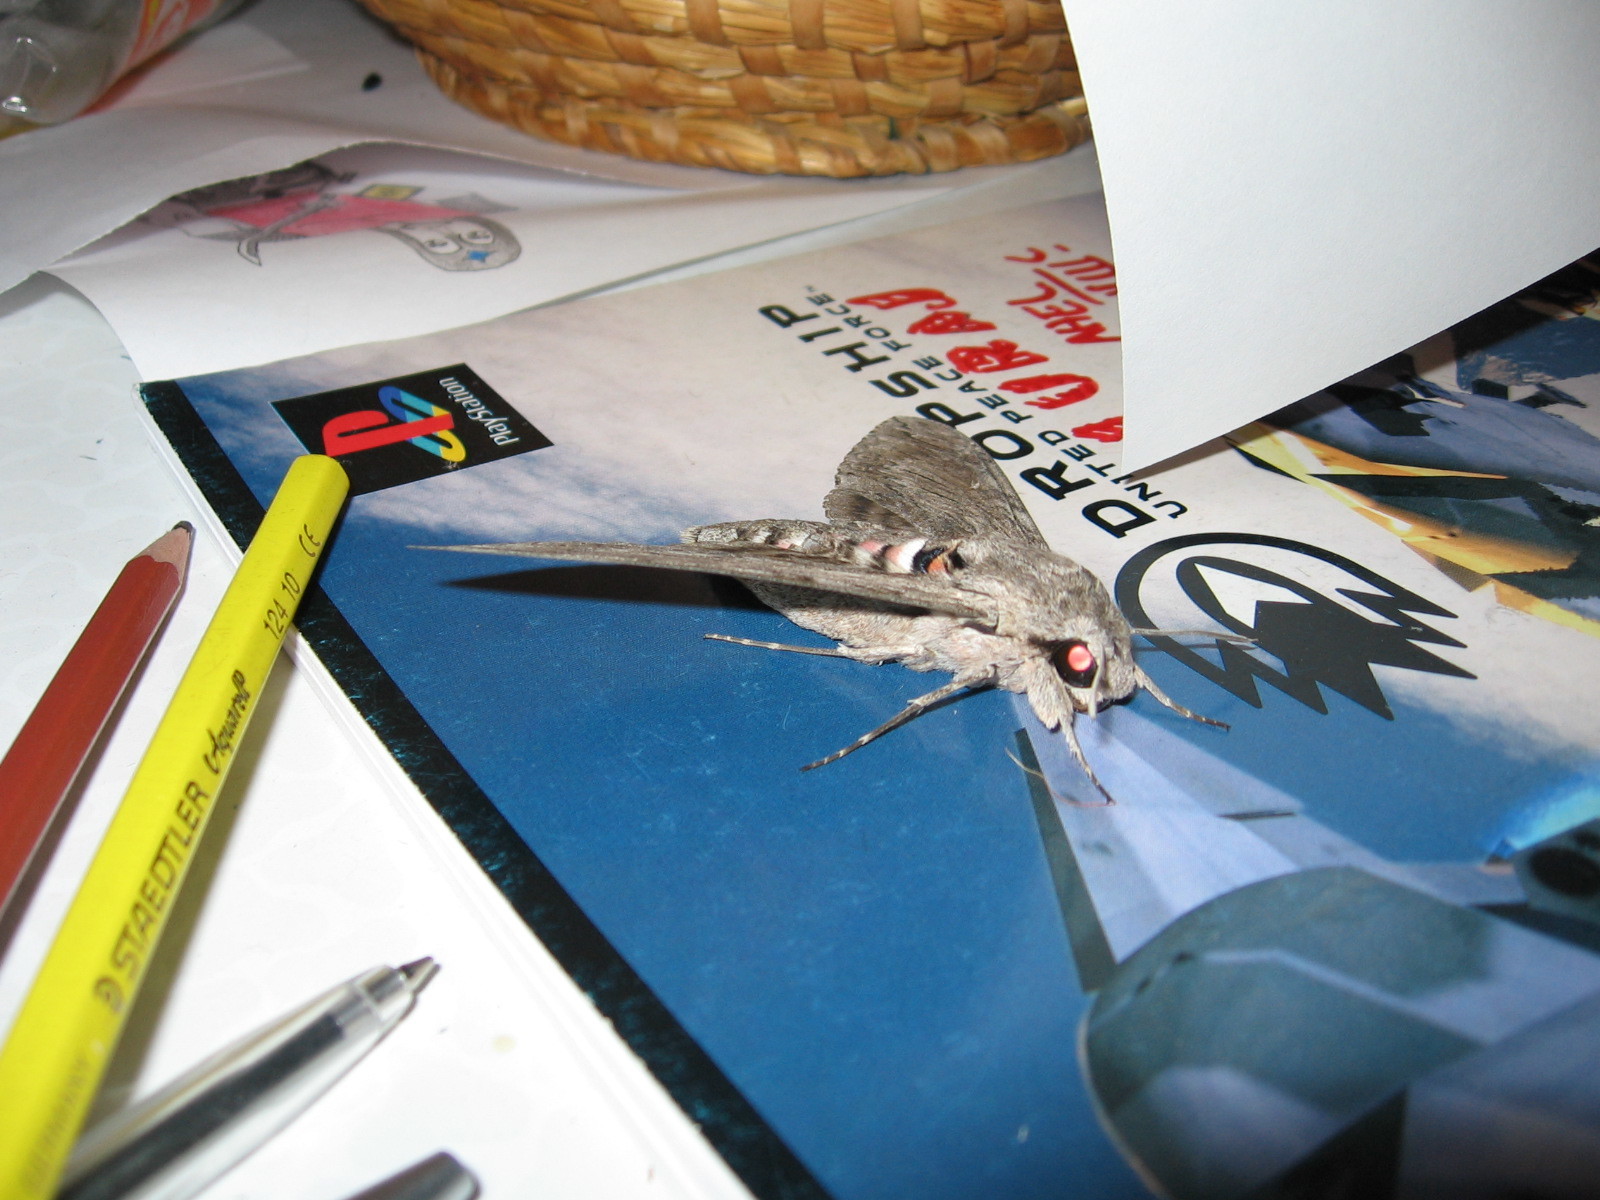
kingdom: Animalia
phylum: Arthropoda
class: Insecta
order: Lepidoptera
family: Sphingidae
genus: Agrius
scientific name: Agrius convolvuli
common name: Convolvulus hawkmoth
